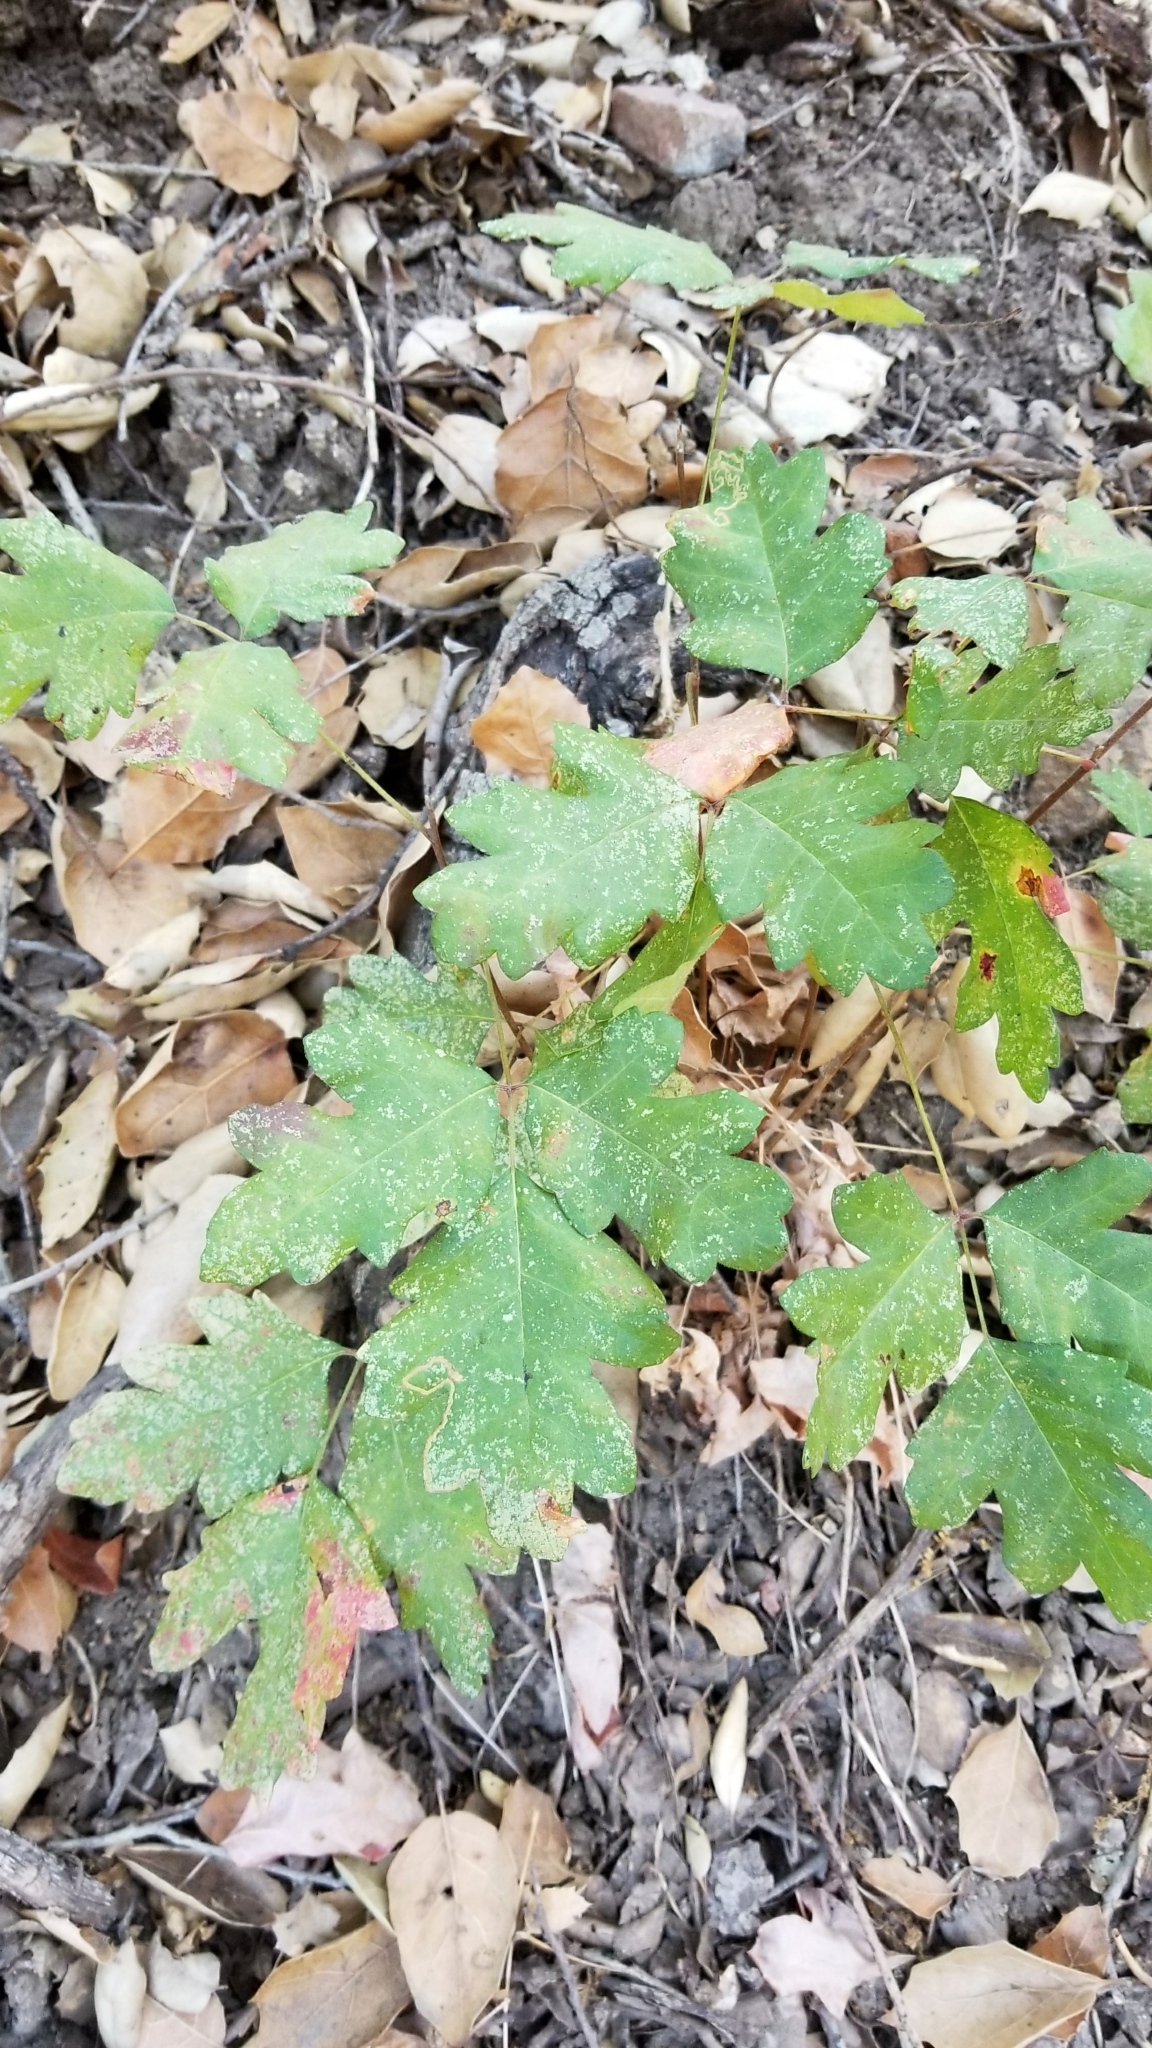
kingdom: Plantae
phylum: Tracheophyta
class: Magnoliopsida
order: Sapindales
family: Anacardiaceae
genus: Toxicodendron
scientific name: Toxicodendron diversilobum
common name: Pacific poison-oak
